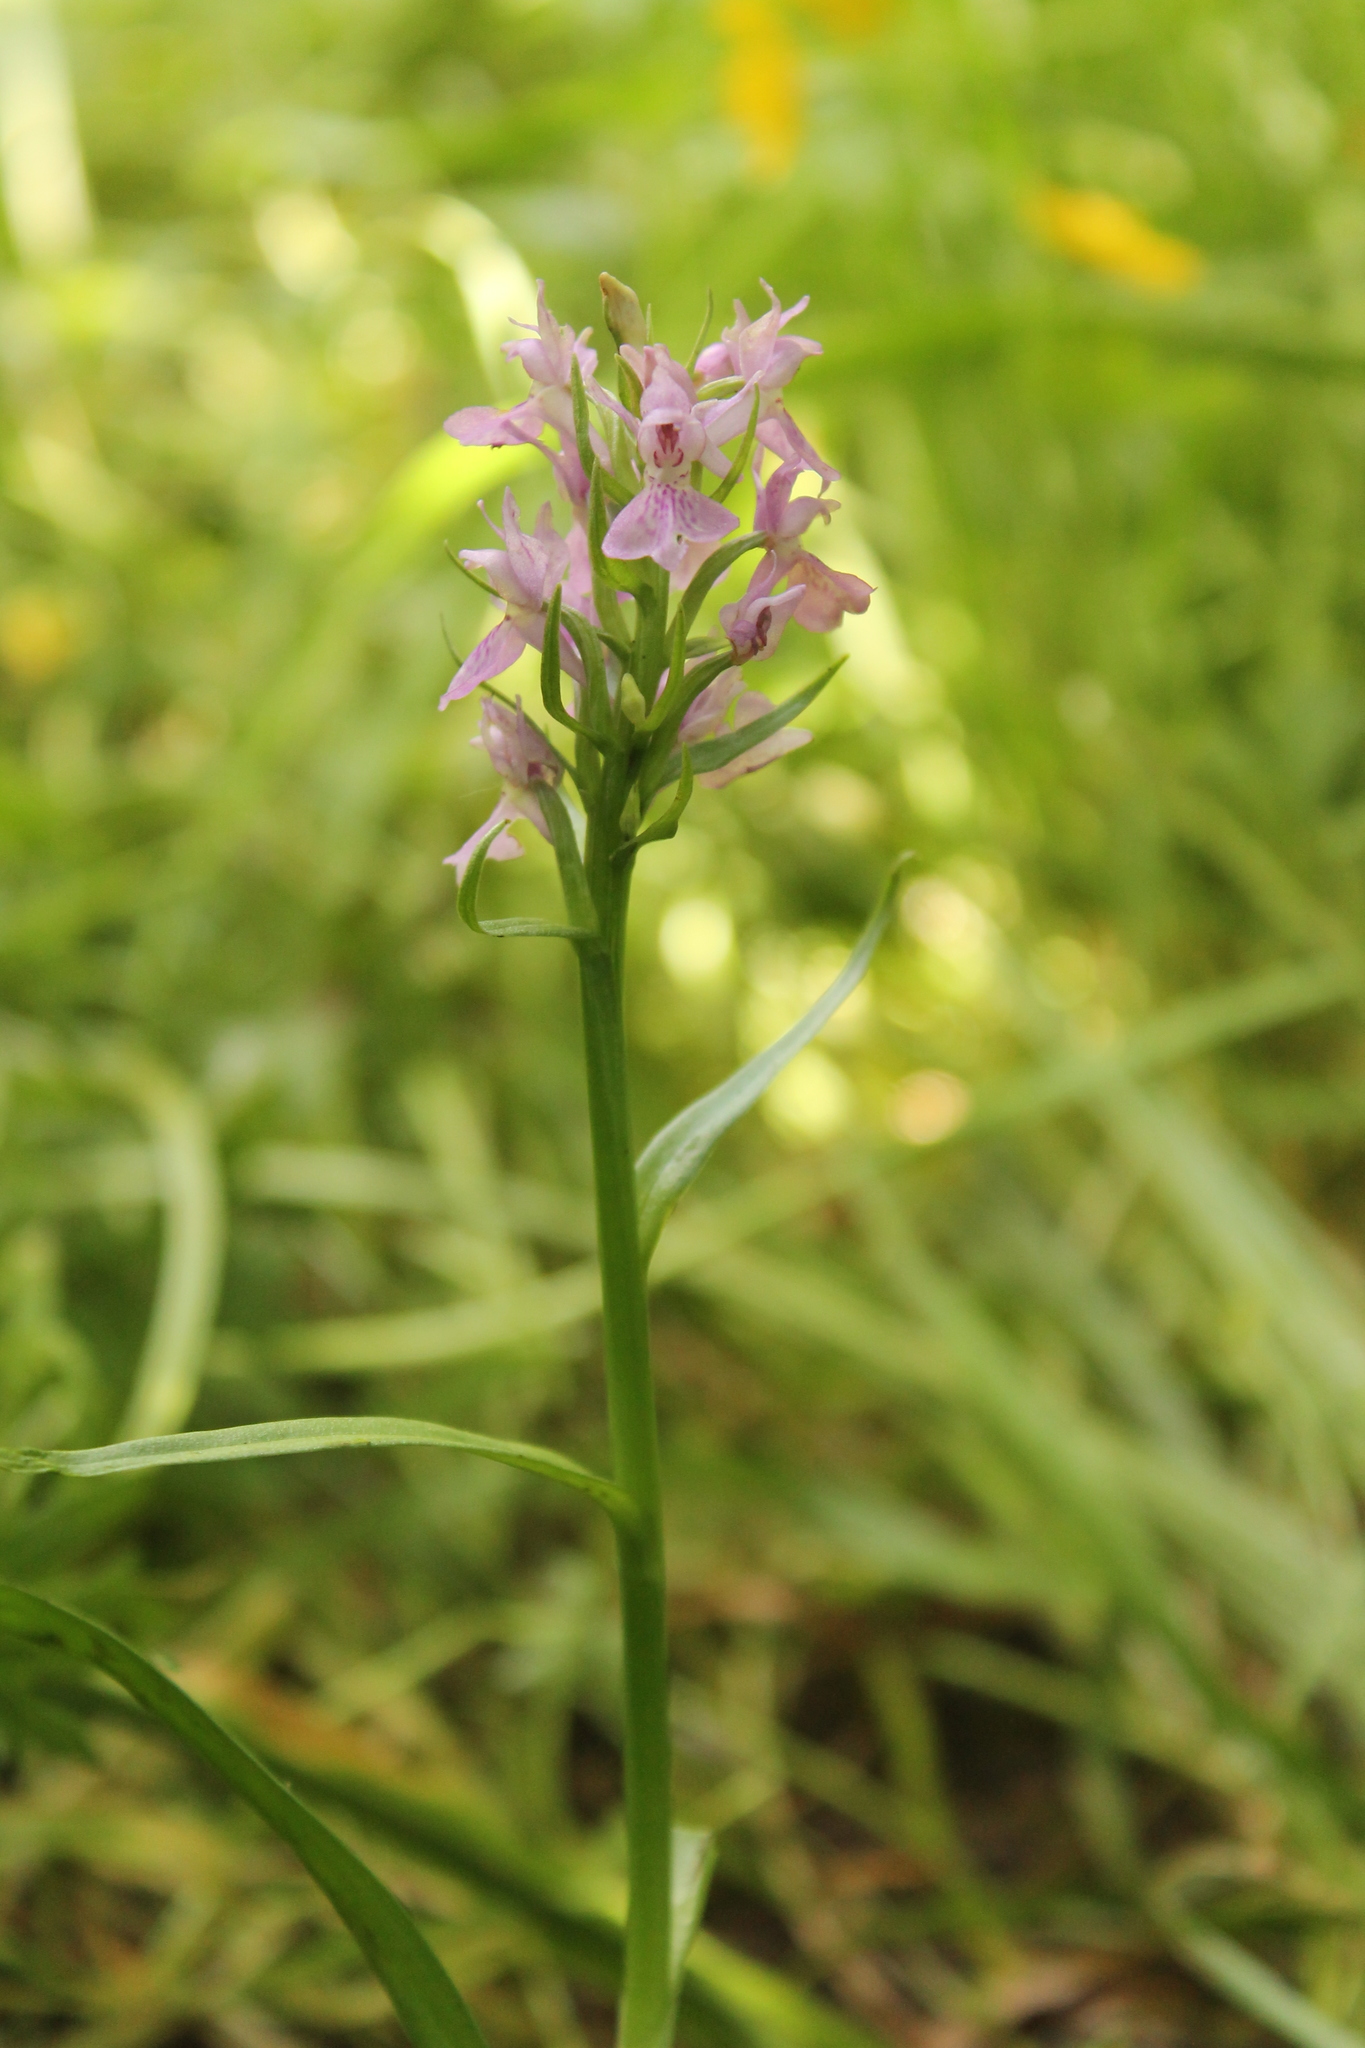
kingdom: Plantae
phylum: Tracheophyta
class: Liliopsida
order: Asparagales
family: Orchidaceae
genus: Dactylorhiza
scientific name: Dactylorhiza majalis
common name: Marsh orchid
